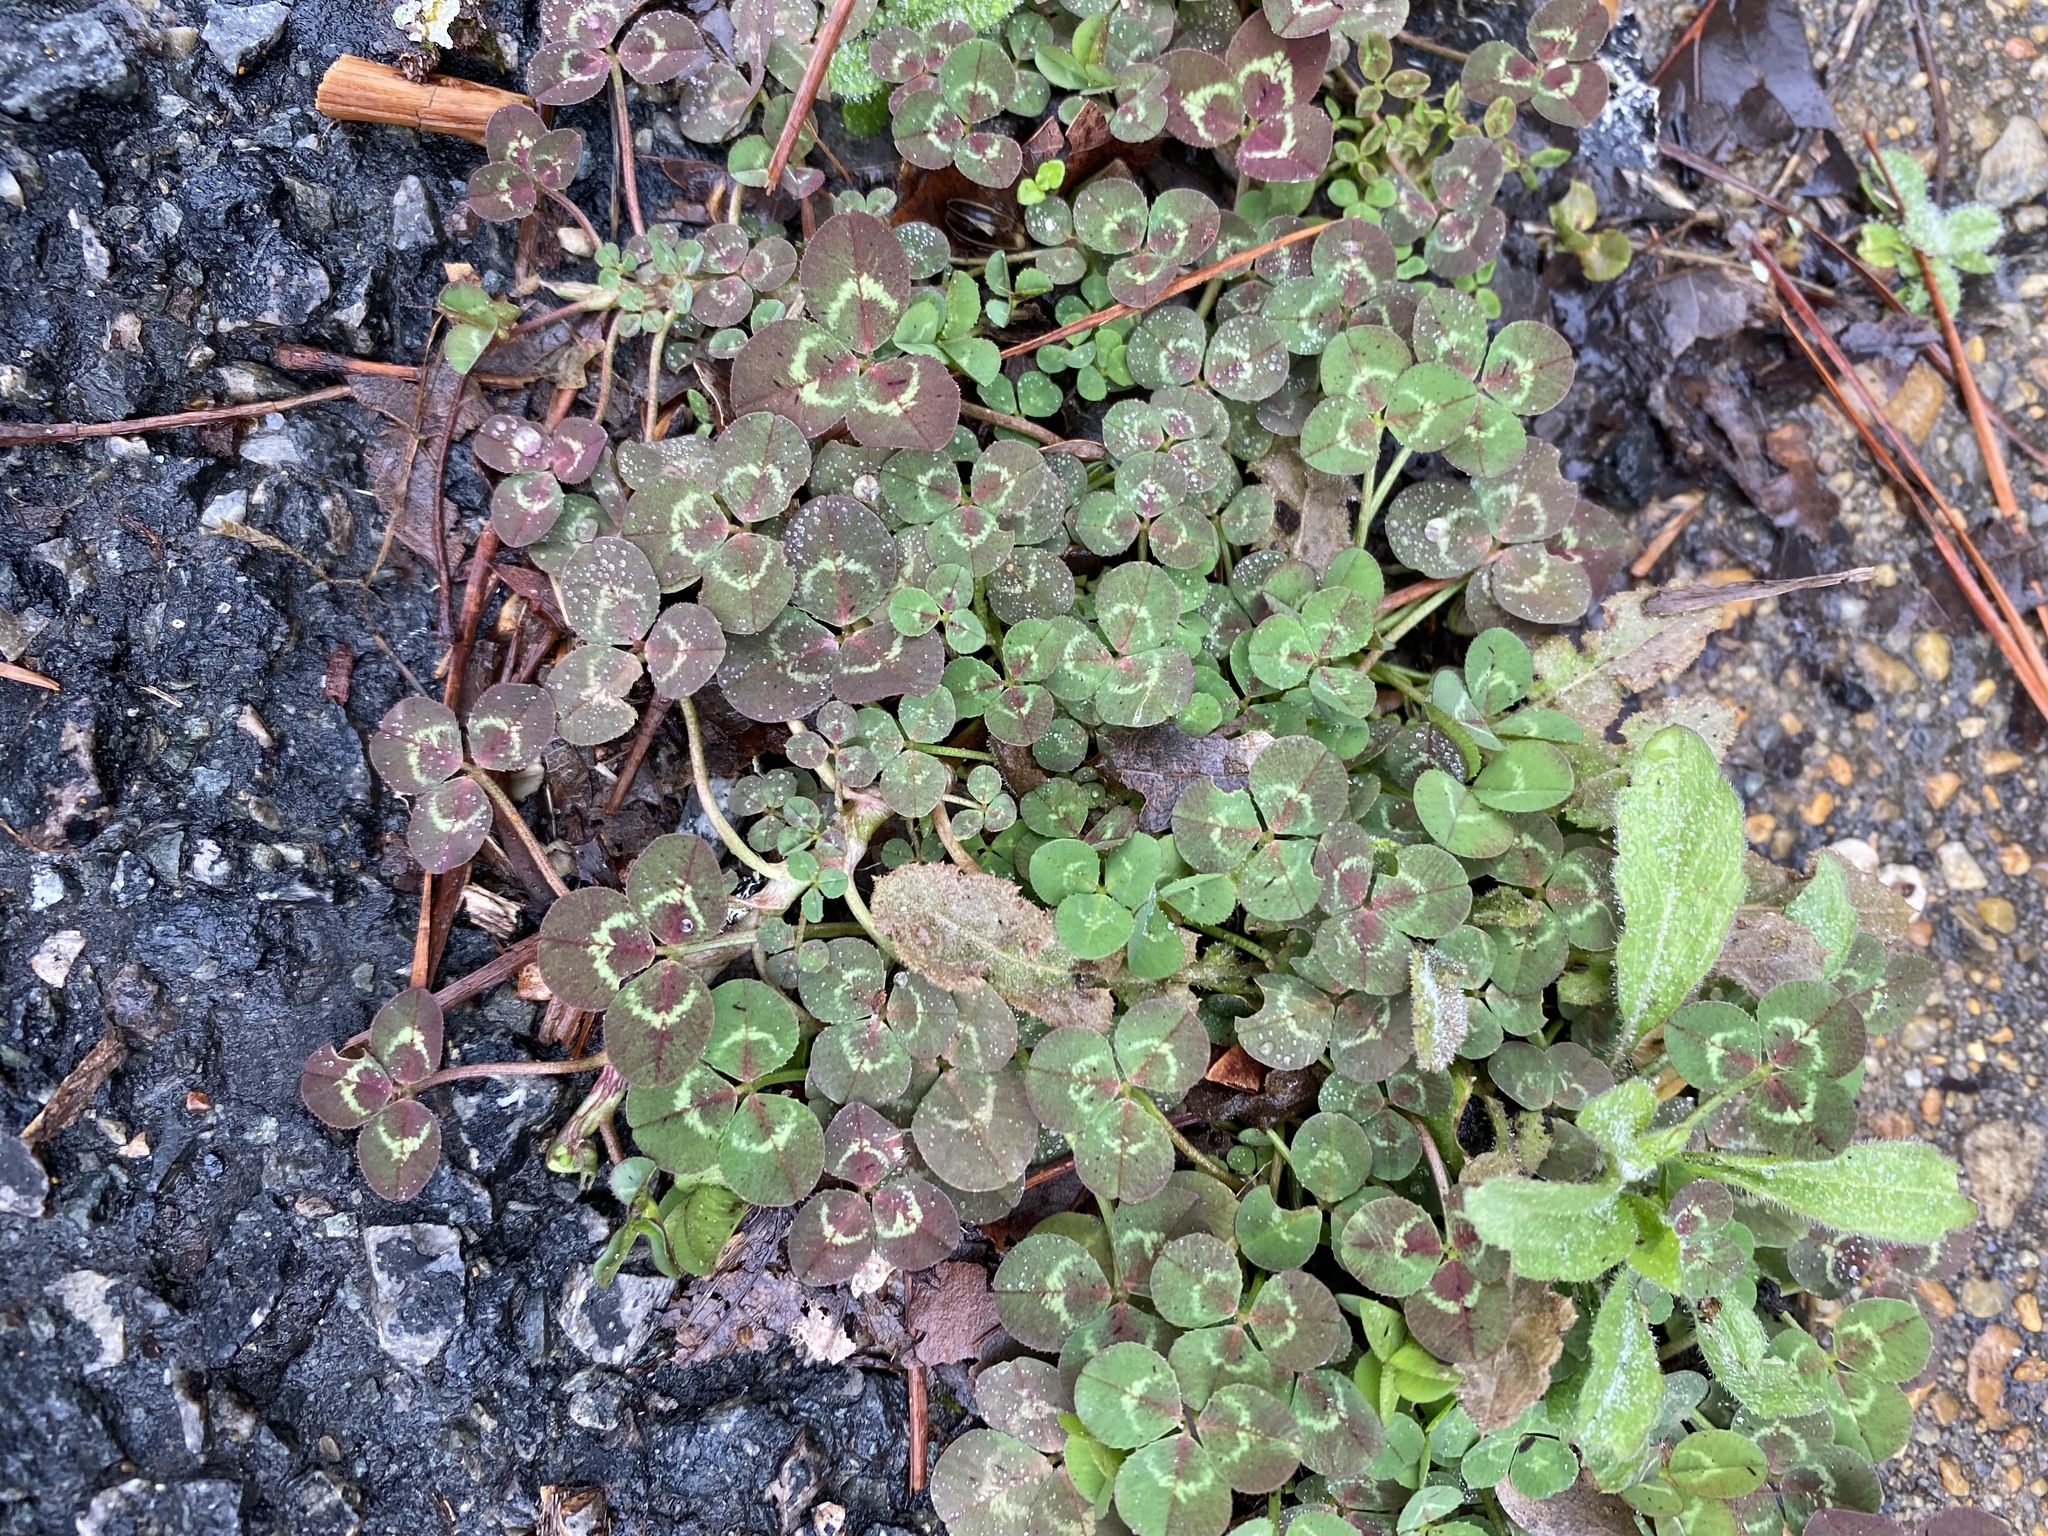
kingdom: Plantae
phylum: Tracheophyta
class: Magnoliopsida
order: Fabales
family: Fabaceae
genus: Trifolium
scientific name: Trifolium repens
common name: White clover
